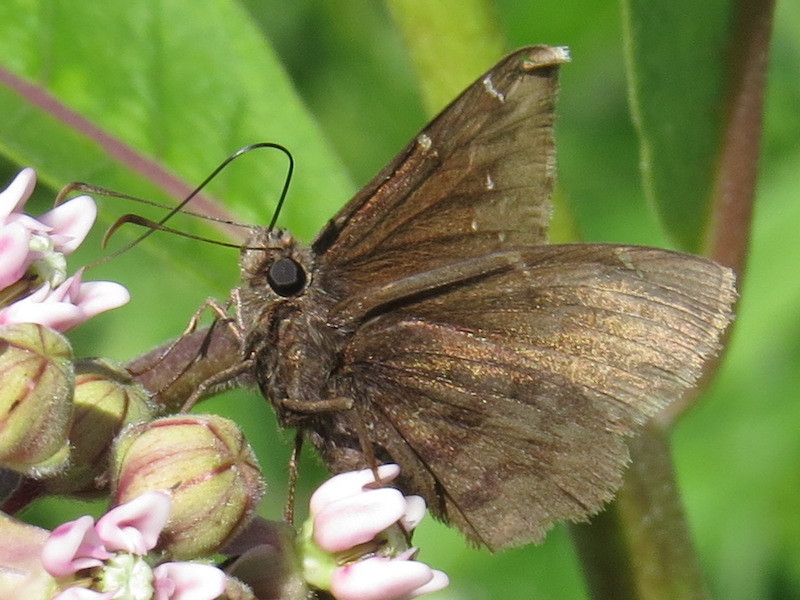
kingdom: Animalia
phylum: Arthropoda
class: Insecta
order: Lepidoptera
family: Hesperiidae
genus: Thorybes
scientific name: Thorybes pylades
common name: Northern cloudywing
